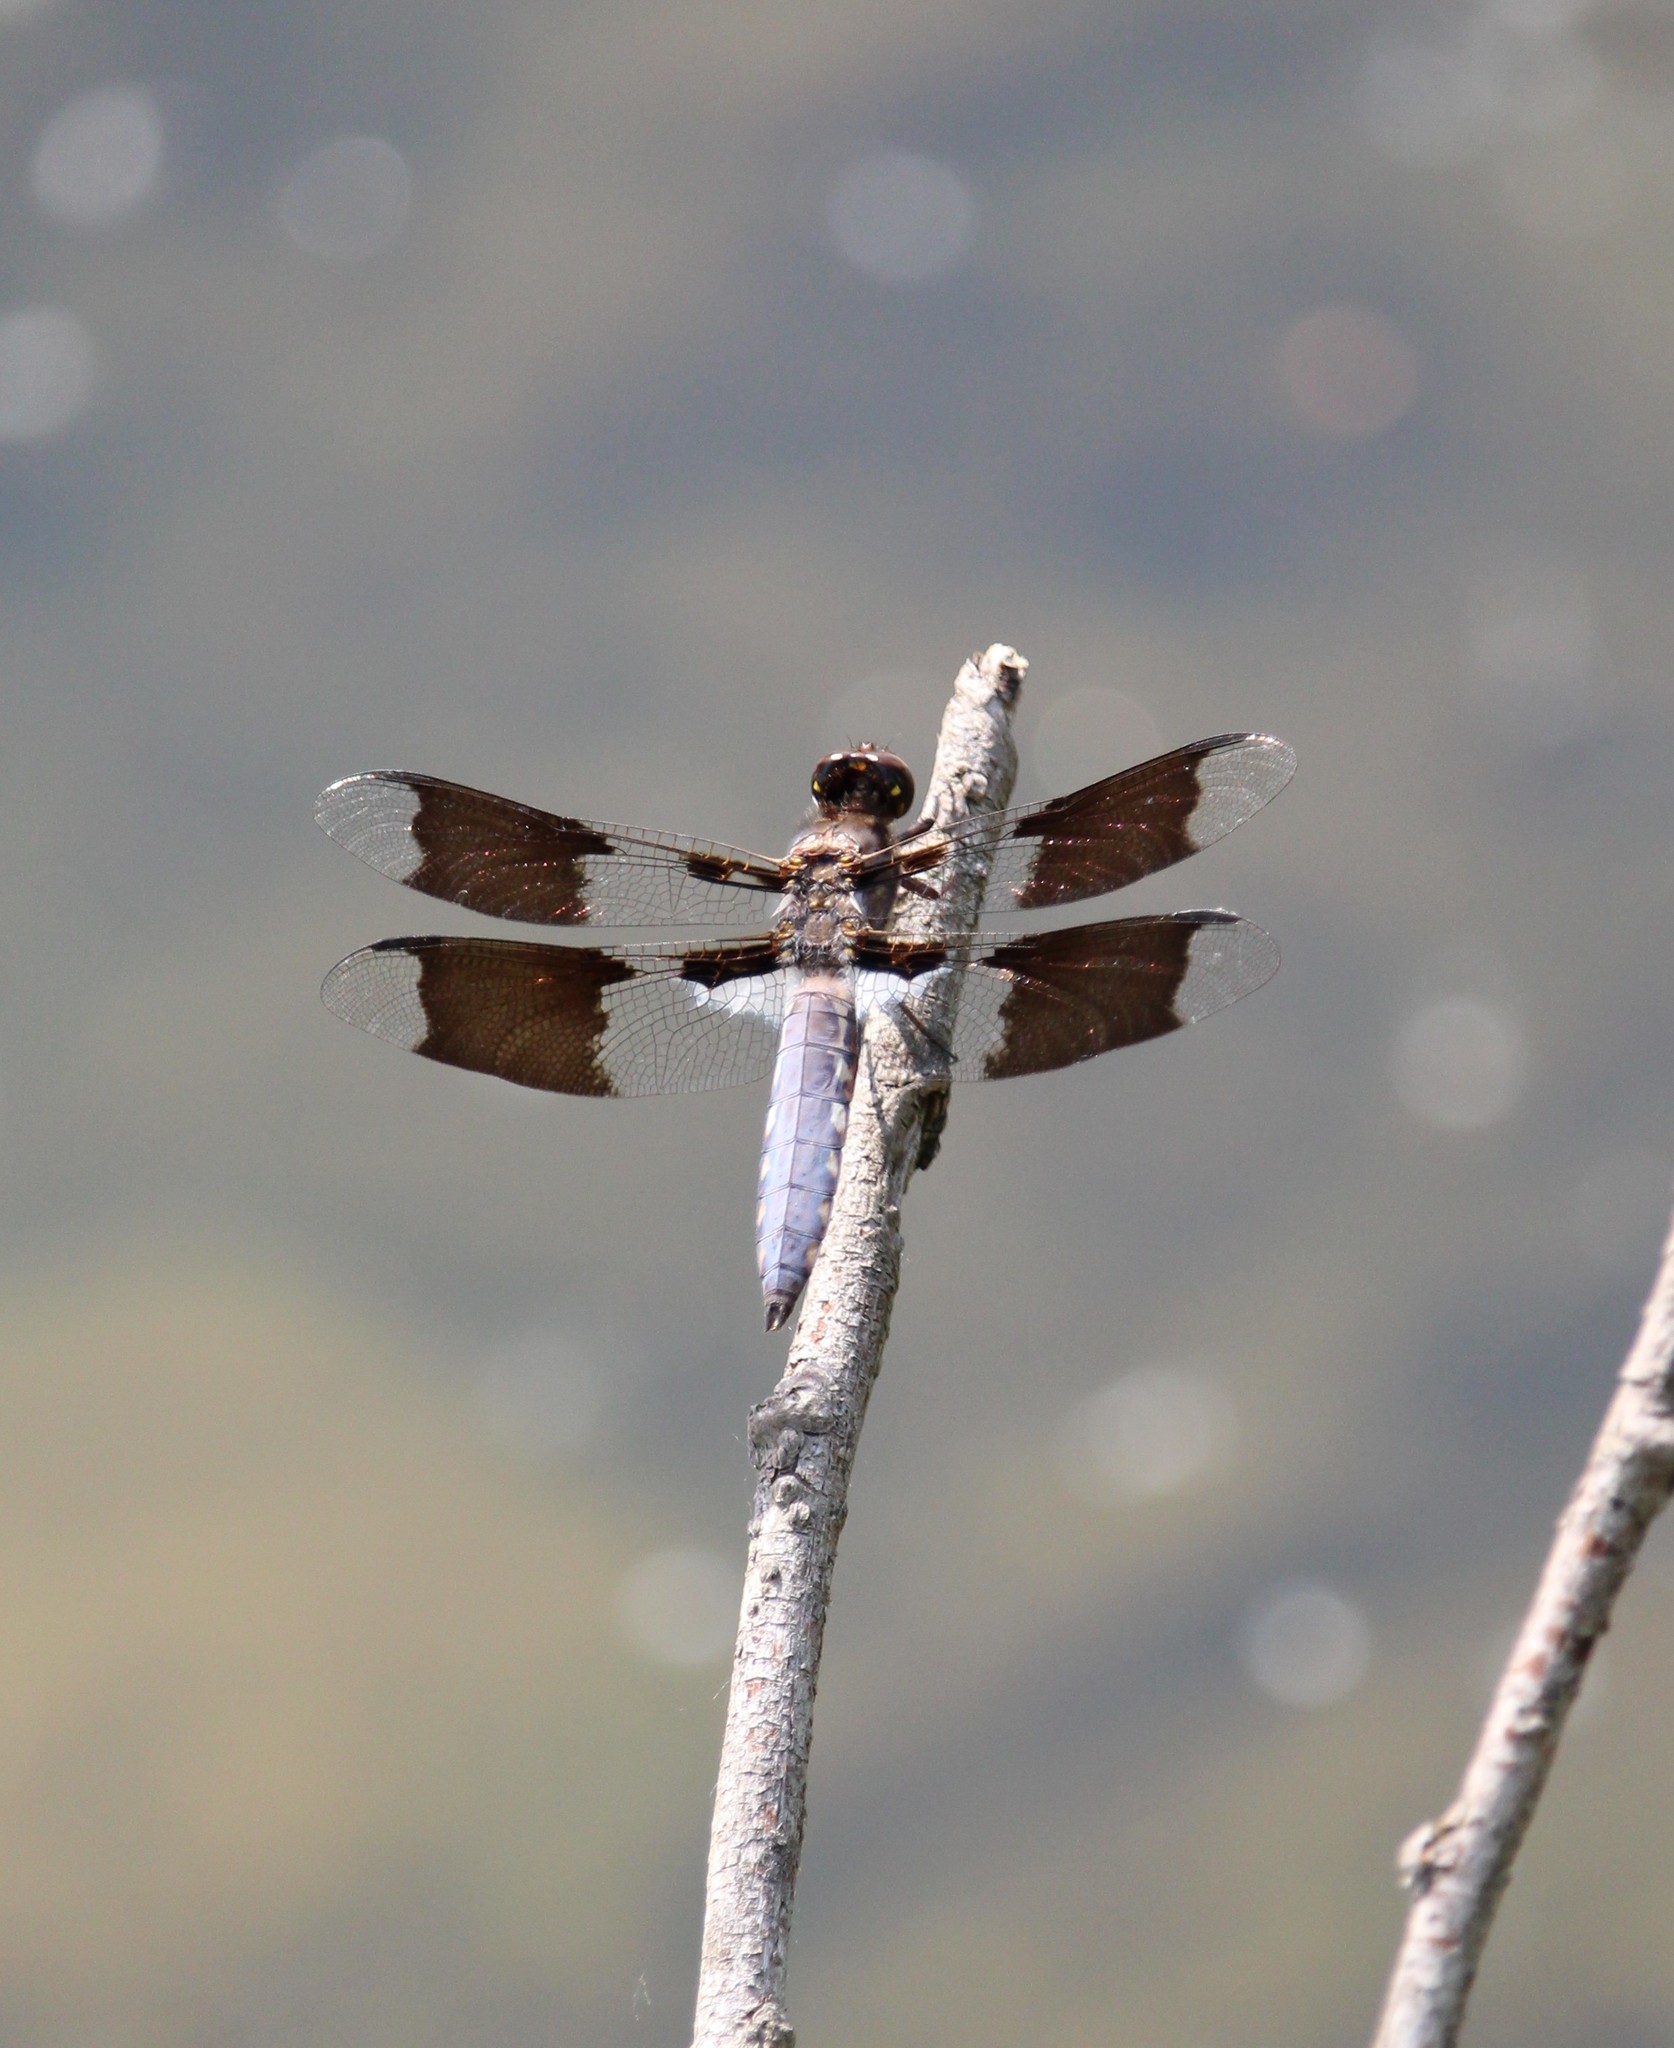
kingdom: Animalia
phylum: Arthropoda
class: Insecta
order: Odonata
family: Libellulidae
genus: Plathemis
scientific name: Plathemis lydia
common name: Common whitetail
